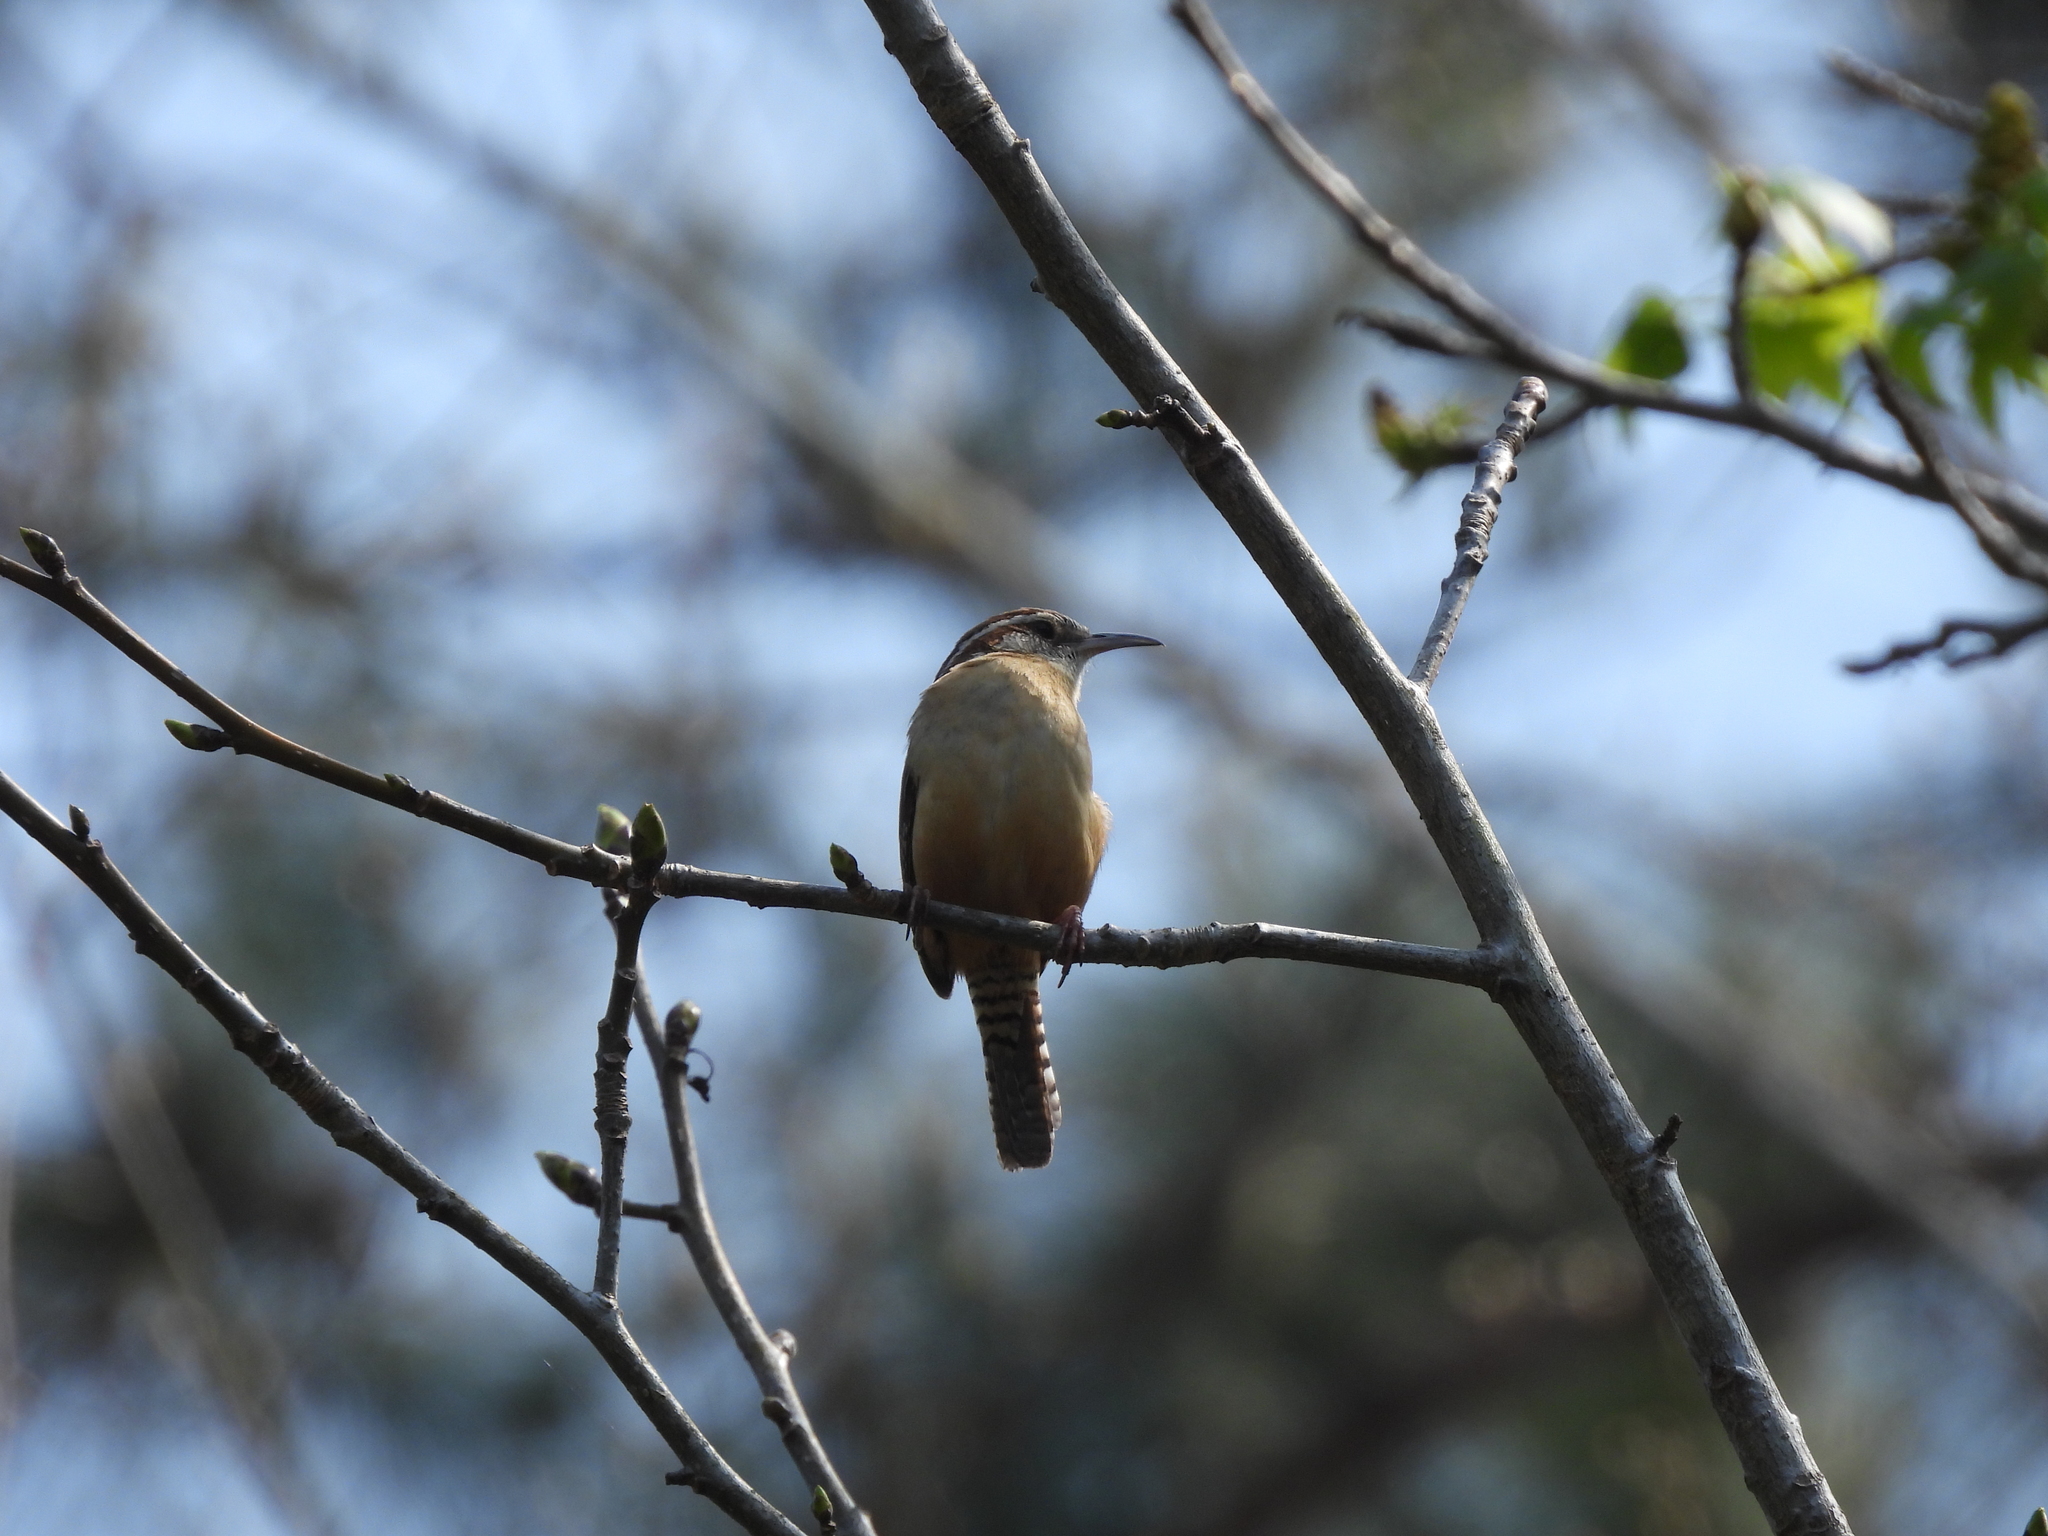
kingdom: Animalia
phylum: Chordata
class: Aves
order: Passeriformes
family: Troglodytidae
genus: Thryothorus
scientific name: Thryothorus ludovicianus
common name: Carolina wren
